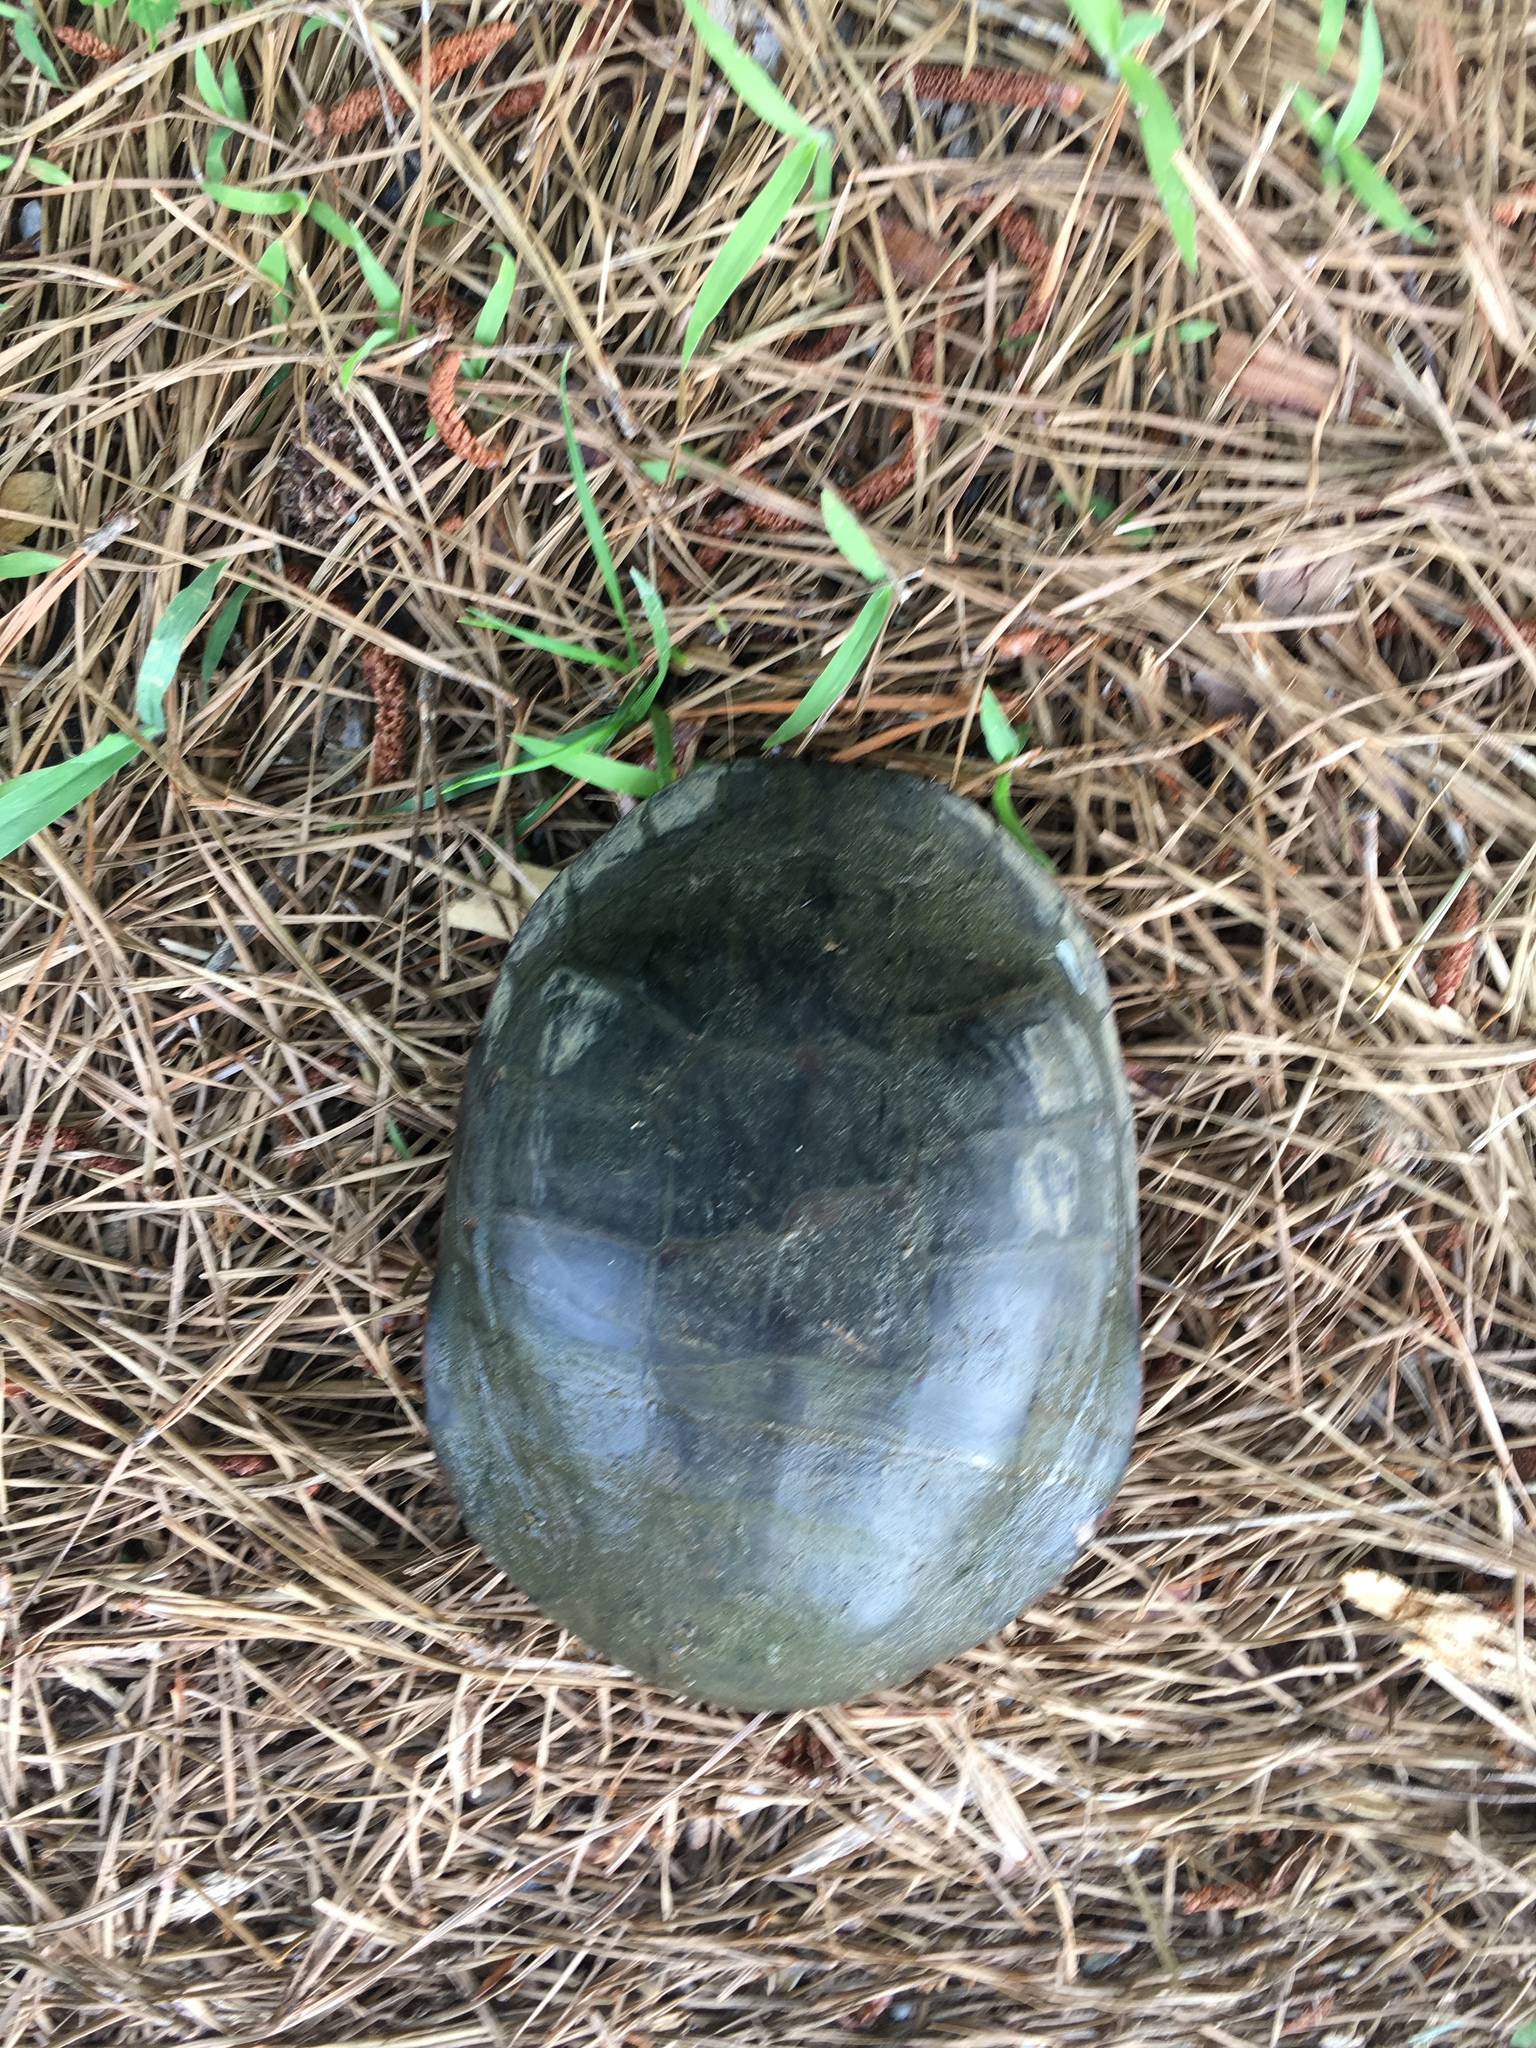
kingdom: Animalia
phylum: Chordata
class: Testudines
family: Emydidae
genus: Chrysemys
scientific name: Chrysemys picta
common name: Painted turtle
